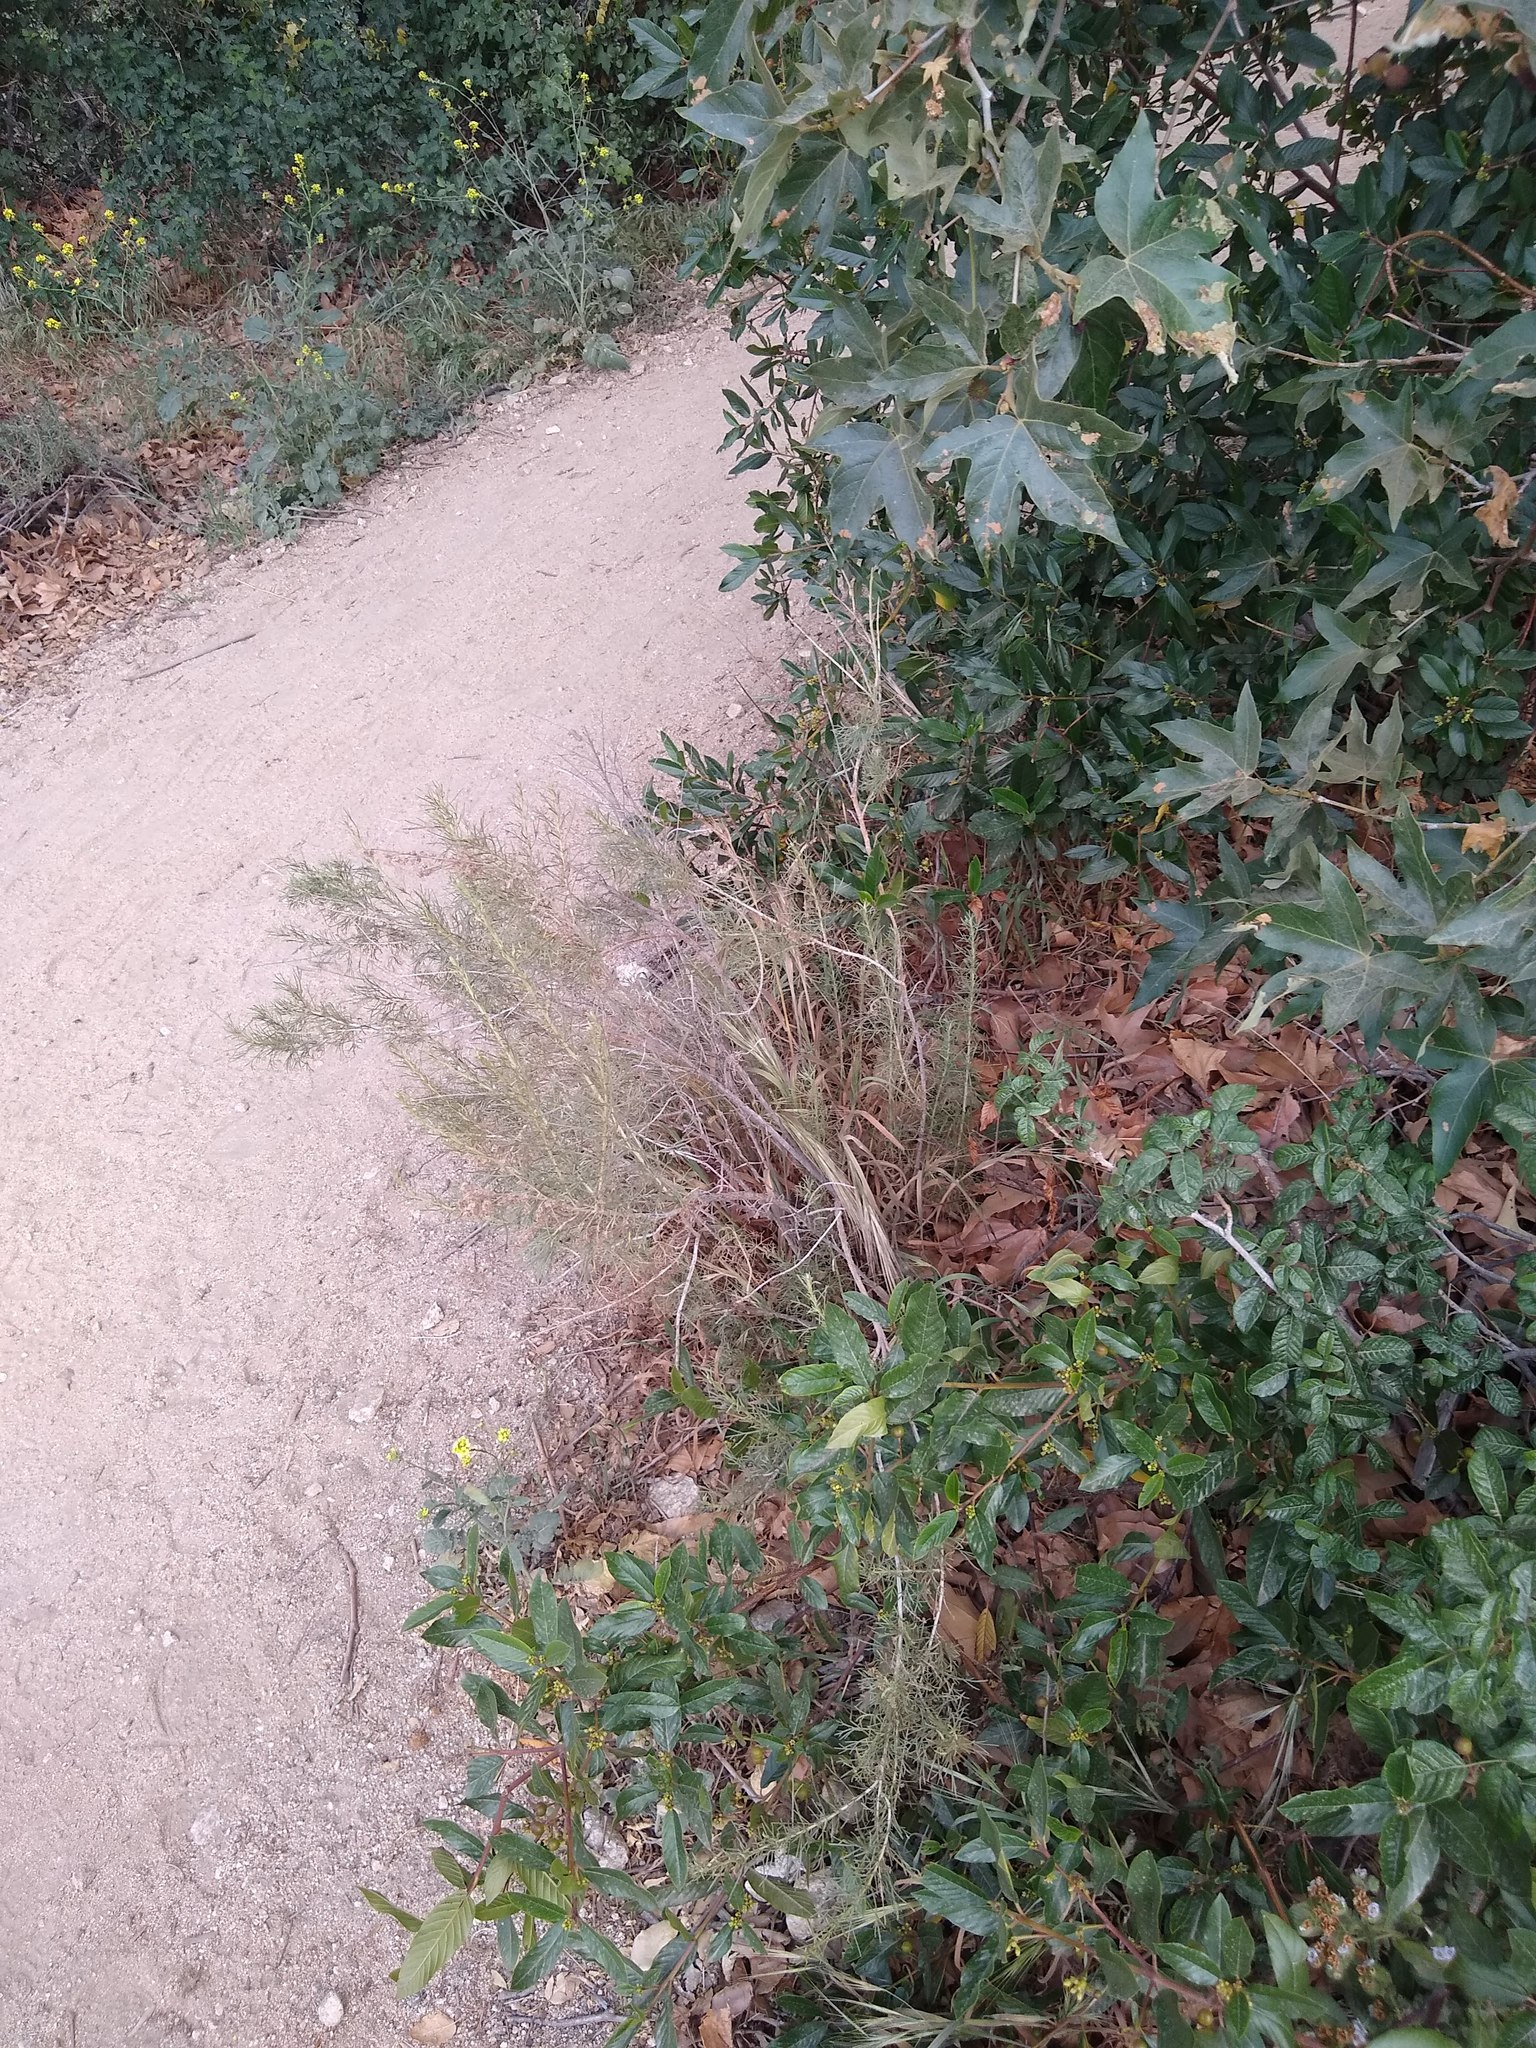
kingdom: Plantae
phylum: Tracheophyta
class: Magnoliopsida
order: Sapindales
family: Anacardiaceae
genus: Toxicodendron
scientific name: Toxicodendron diversilobum
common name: Pacific poison-oak
